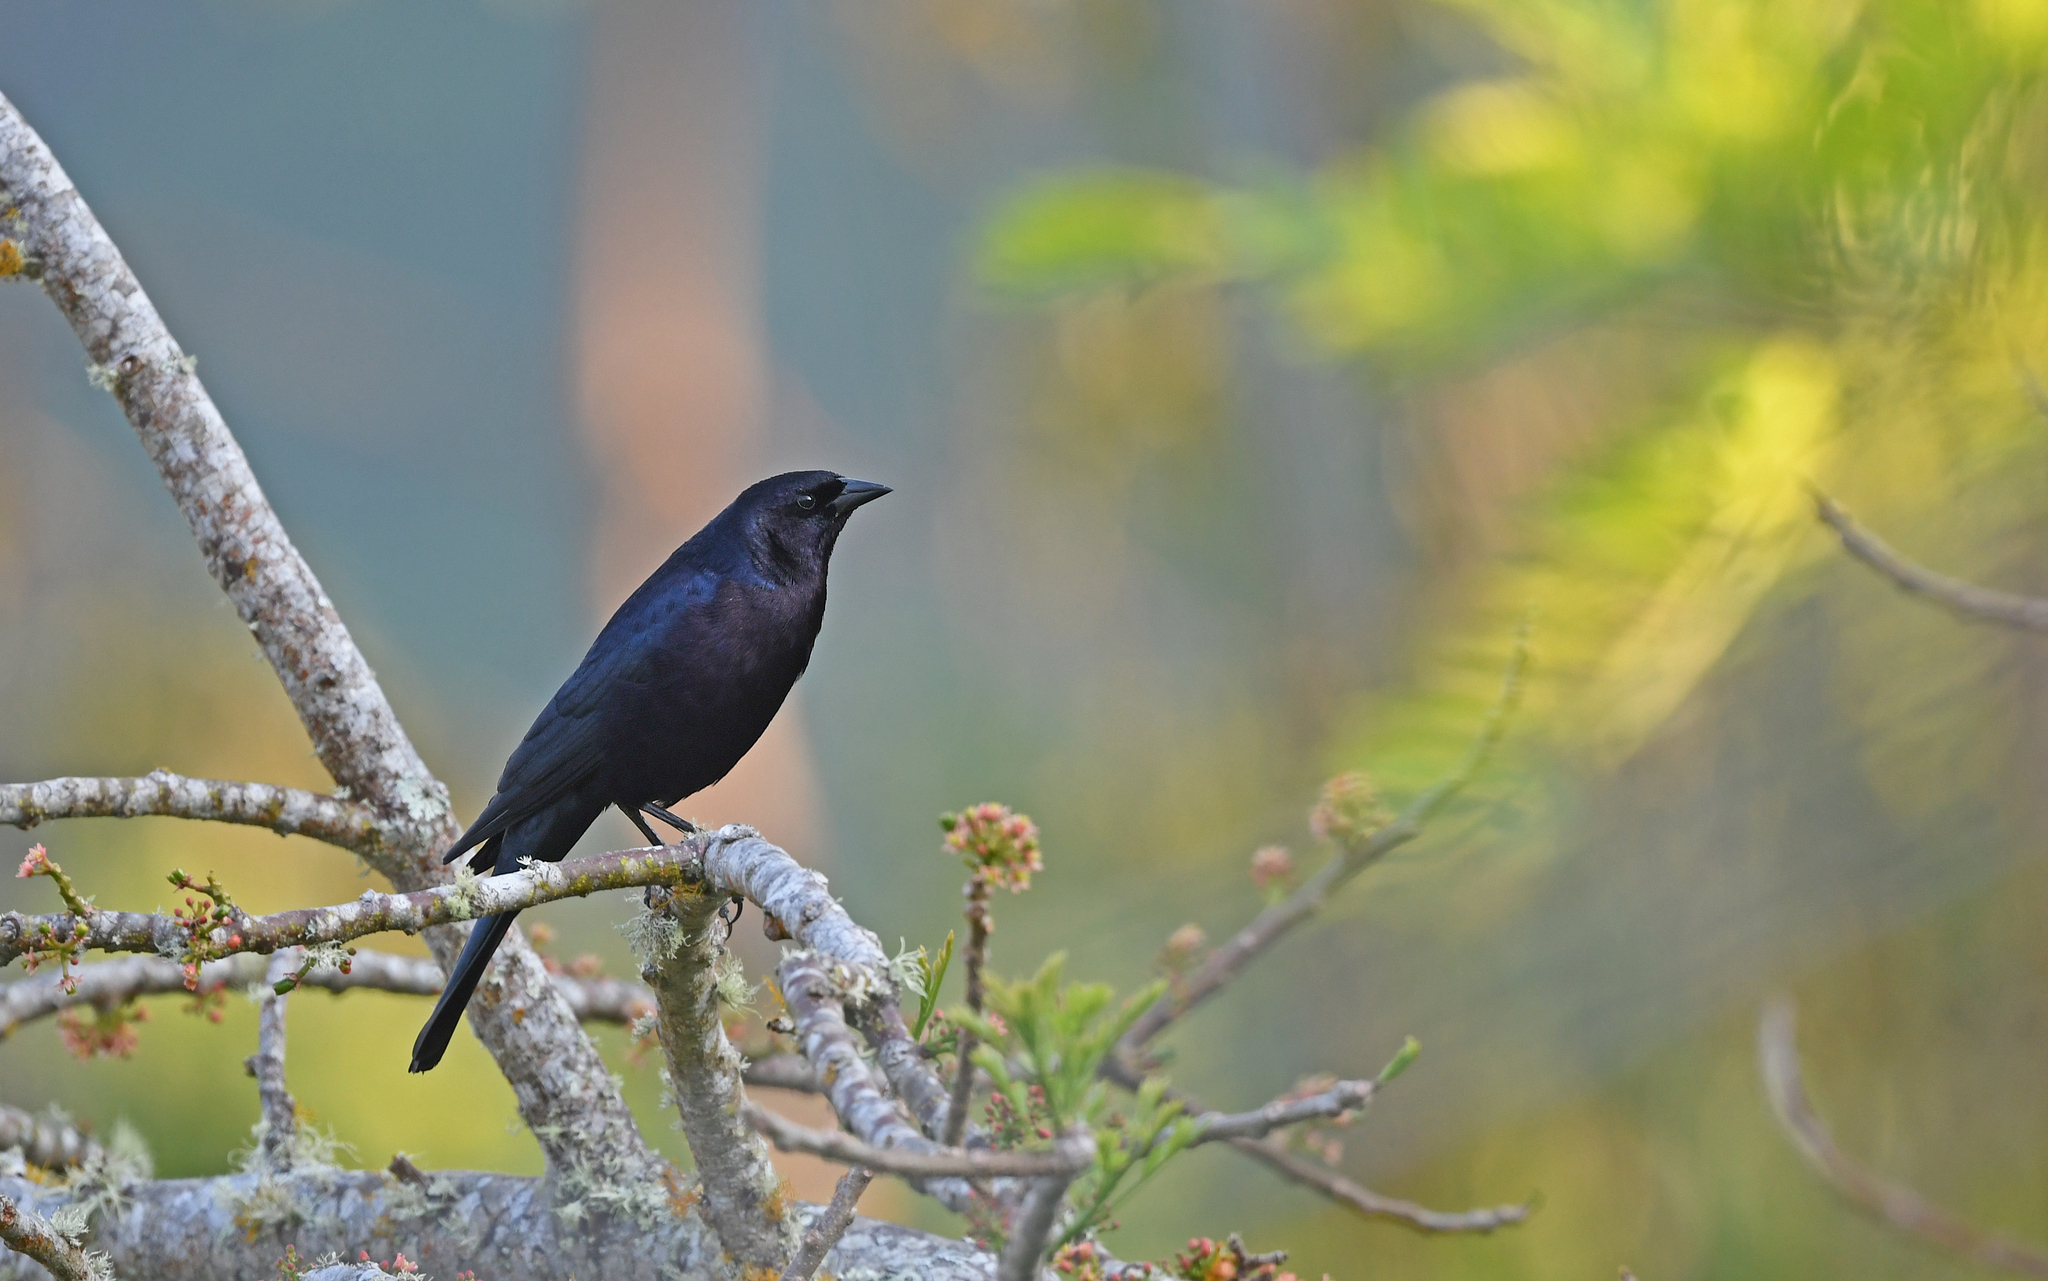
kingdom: Animalia
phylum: Chordata
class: Aves
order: Passeriformes
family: Icteridae
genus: Molothrus
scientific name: Molothrus bonariensis
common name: Shiny cowbird
